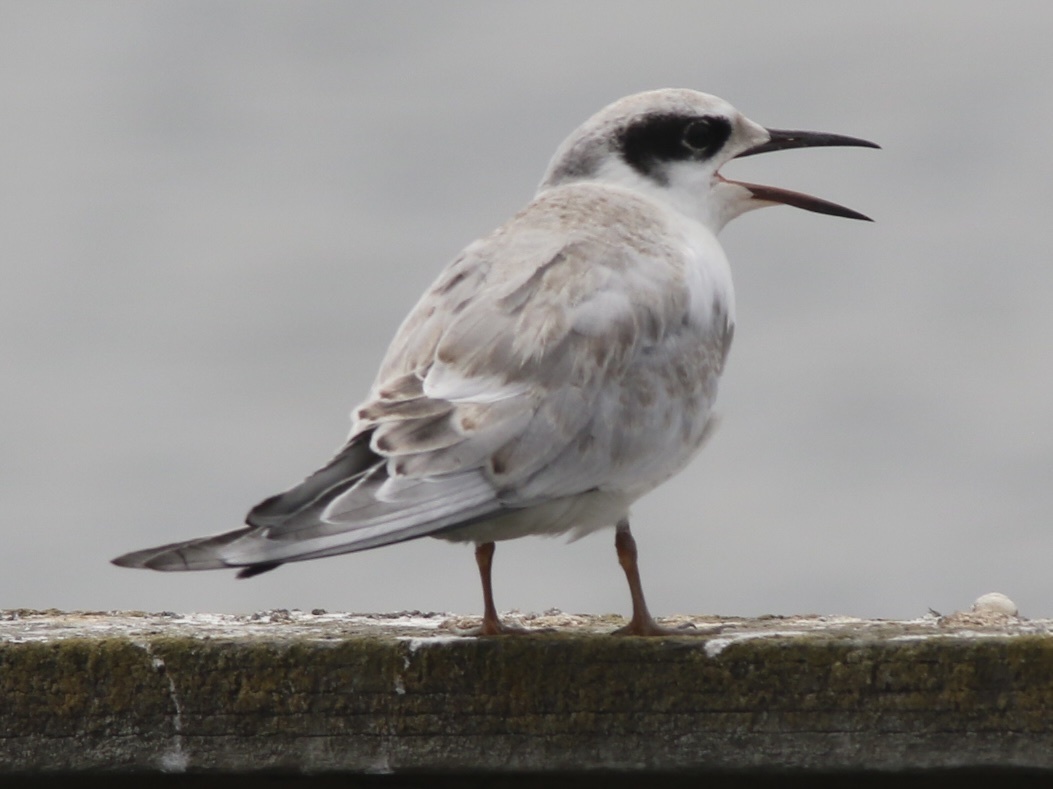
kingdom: Animalia
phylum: Chordata
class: Aves
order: Charadriiformes
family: Laridae
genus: Sterna
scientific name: Sterna forsteri
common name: Forster's tern
